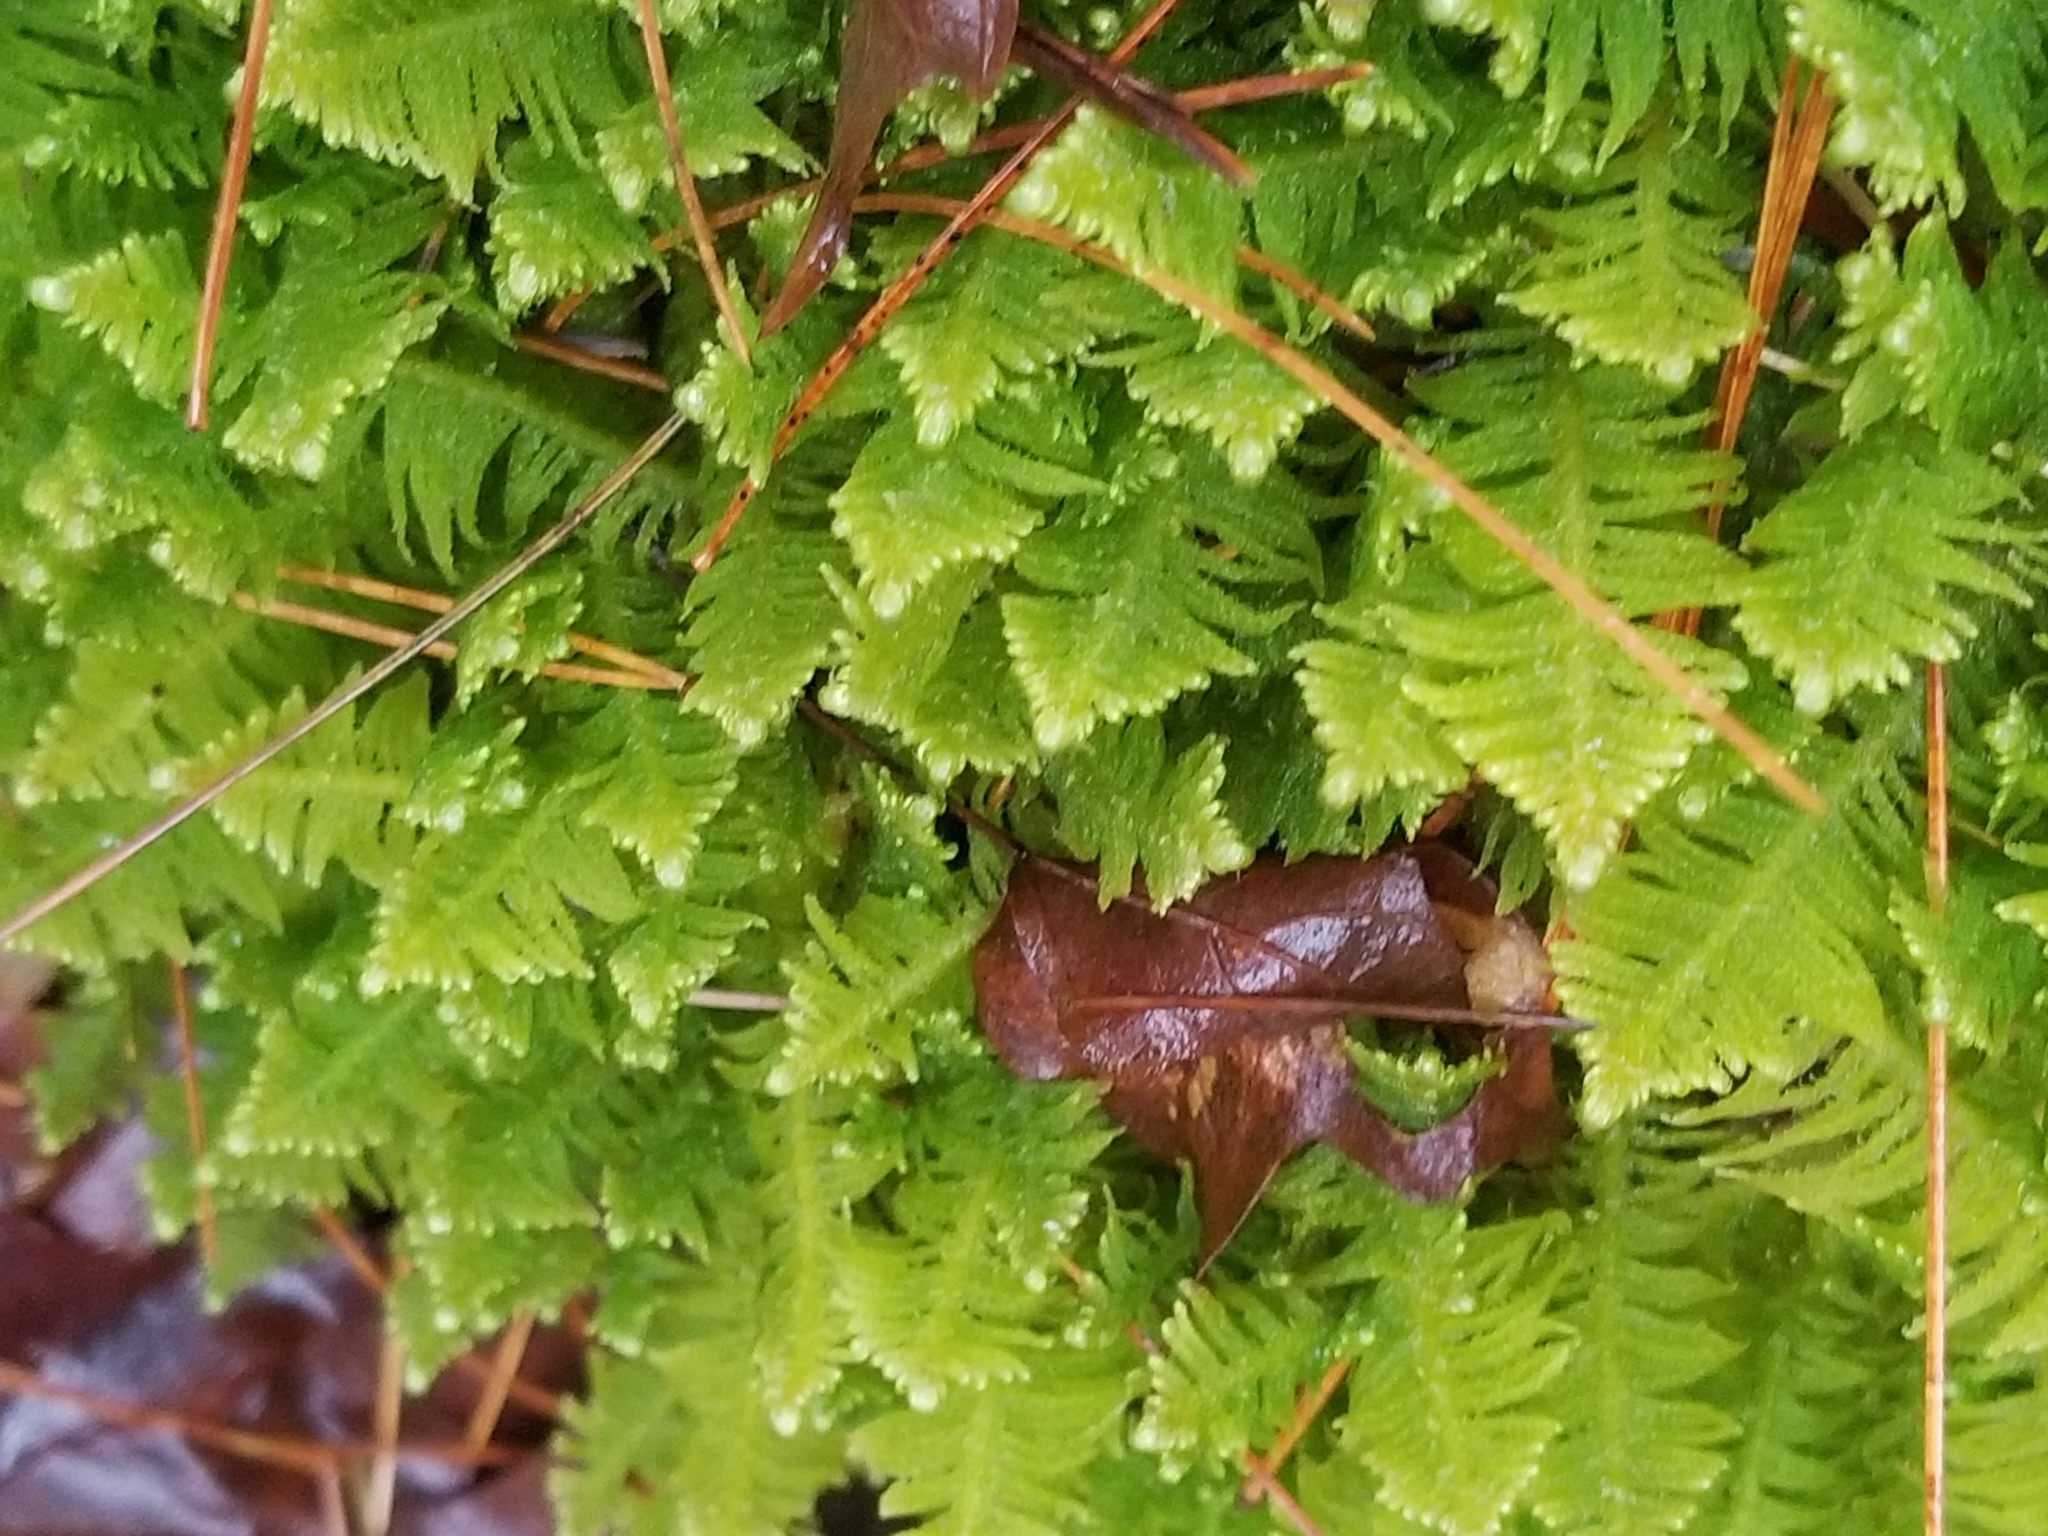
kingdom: Plantae
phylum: Bryophyta
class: Bryopsida
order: Hypnales
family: Pylaisiaceae
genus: Ptilium
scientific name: Ptilium crista-castrensis
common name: Knight's plume moss
